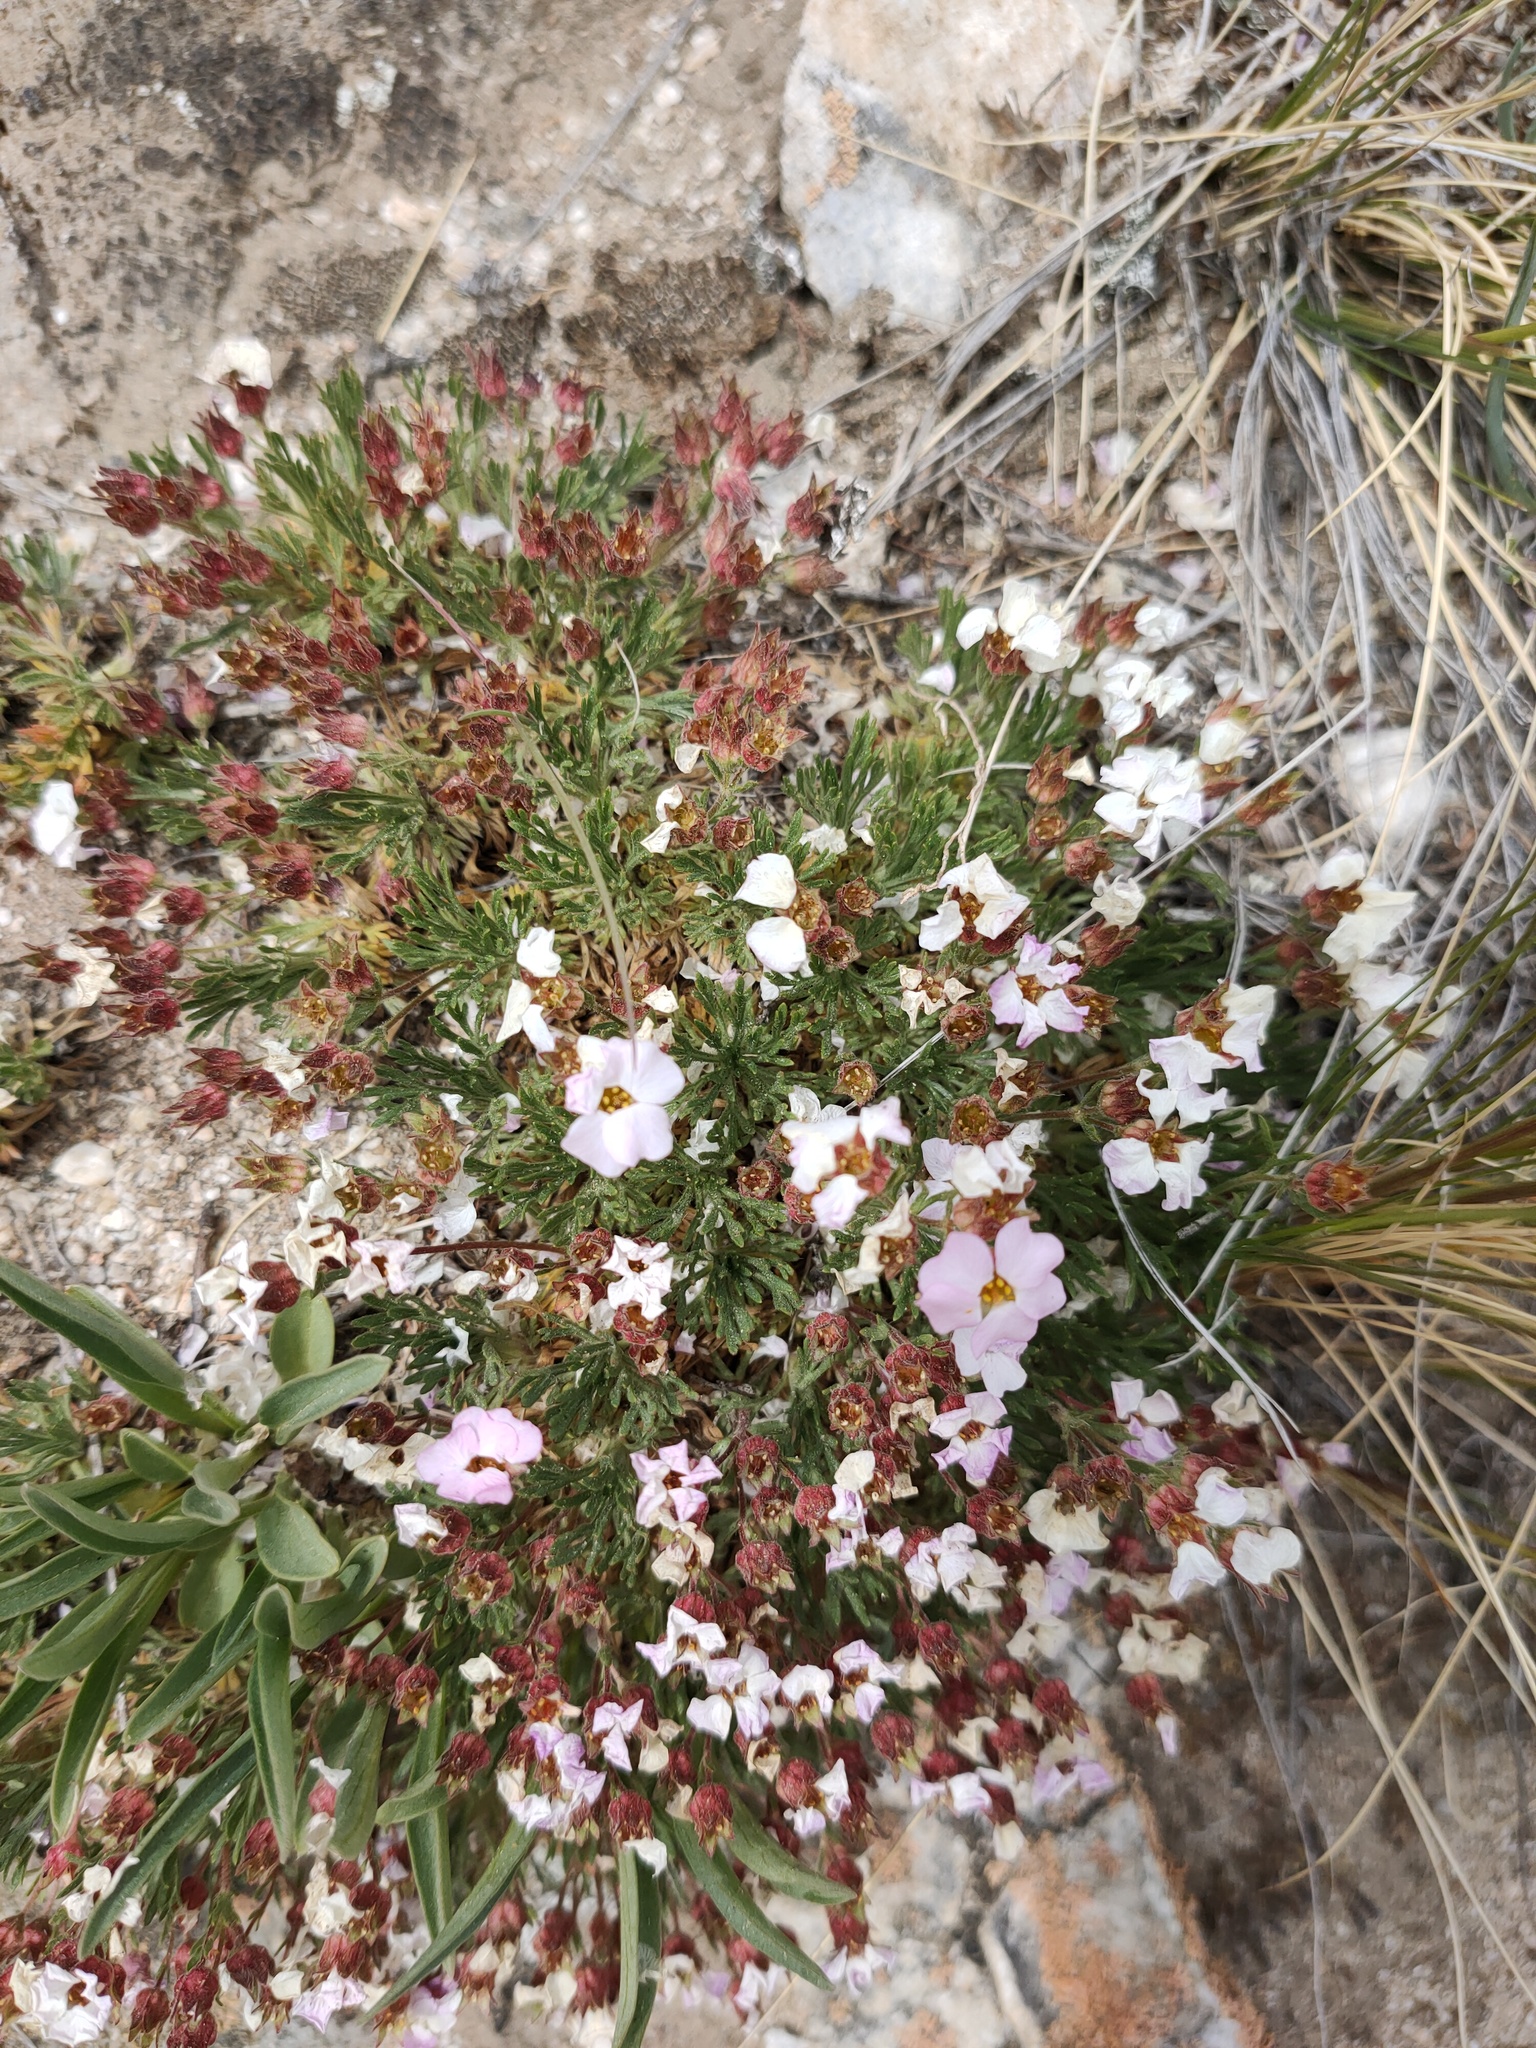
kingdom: Plantae
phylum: Tracheophyta
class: Magnoliopsida
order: Rosales
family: Rosaceae
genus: Chamaerhodos
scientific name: Chamaerhodos altaica
